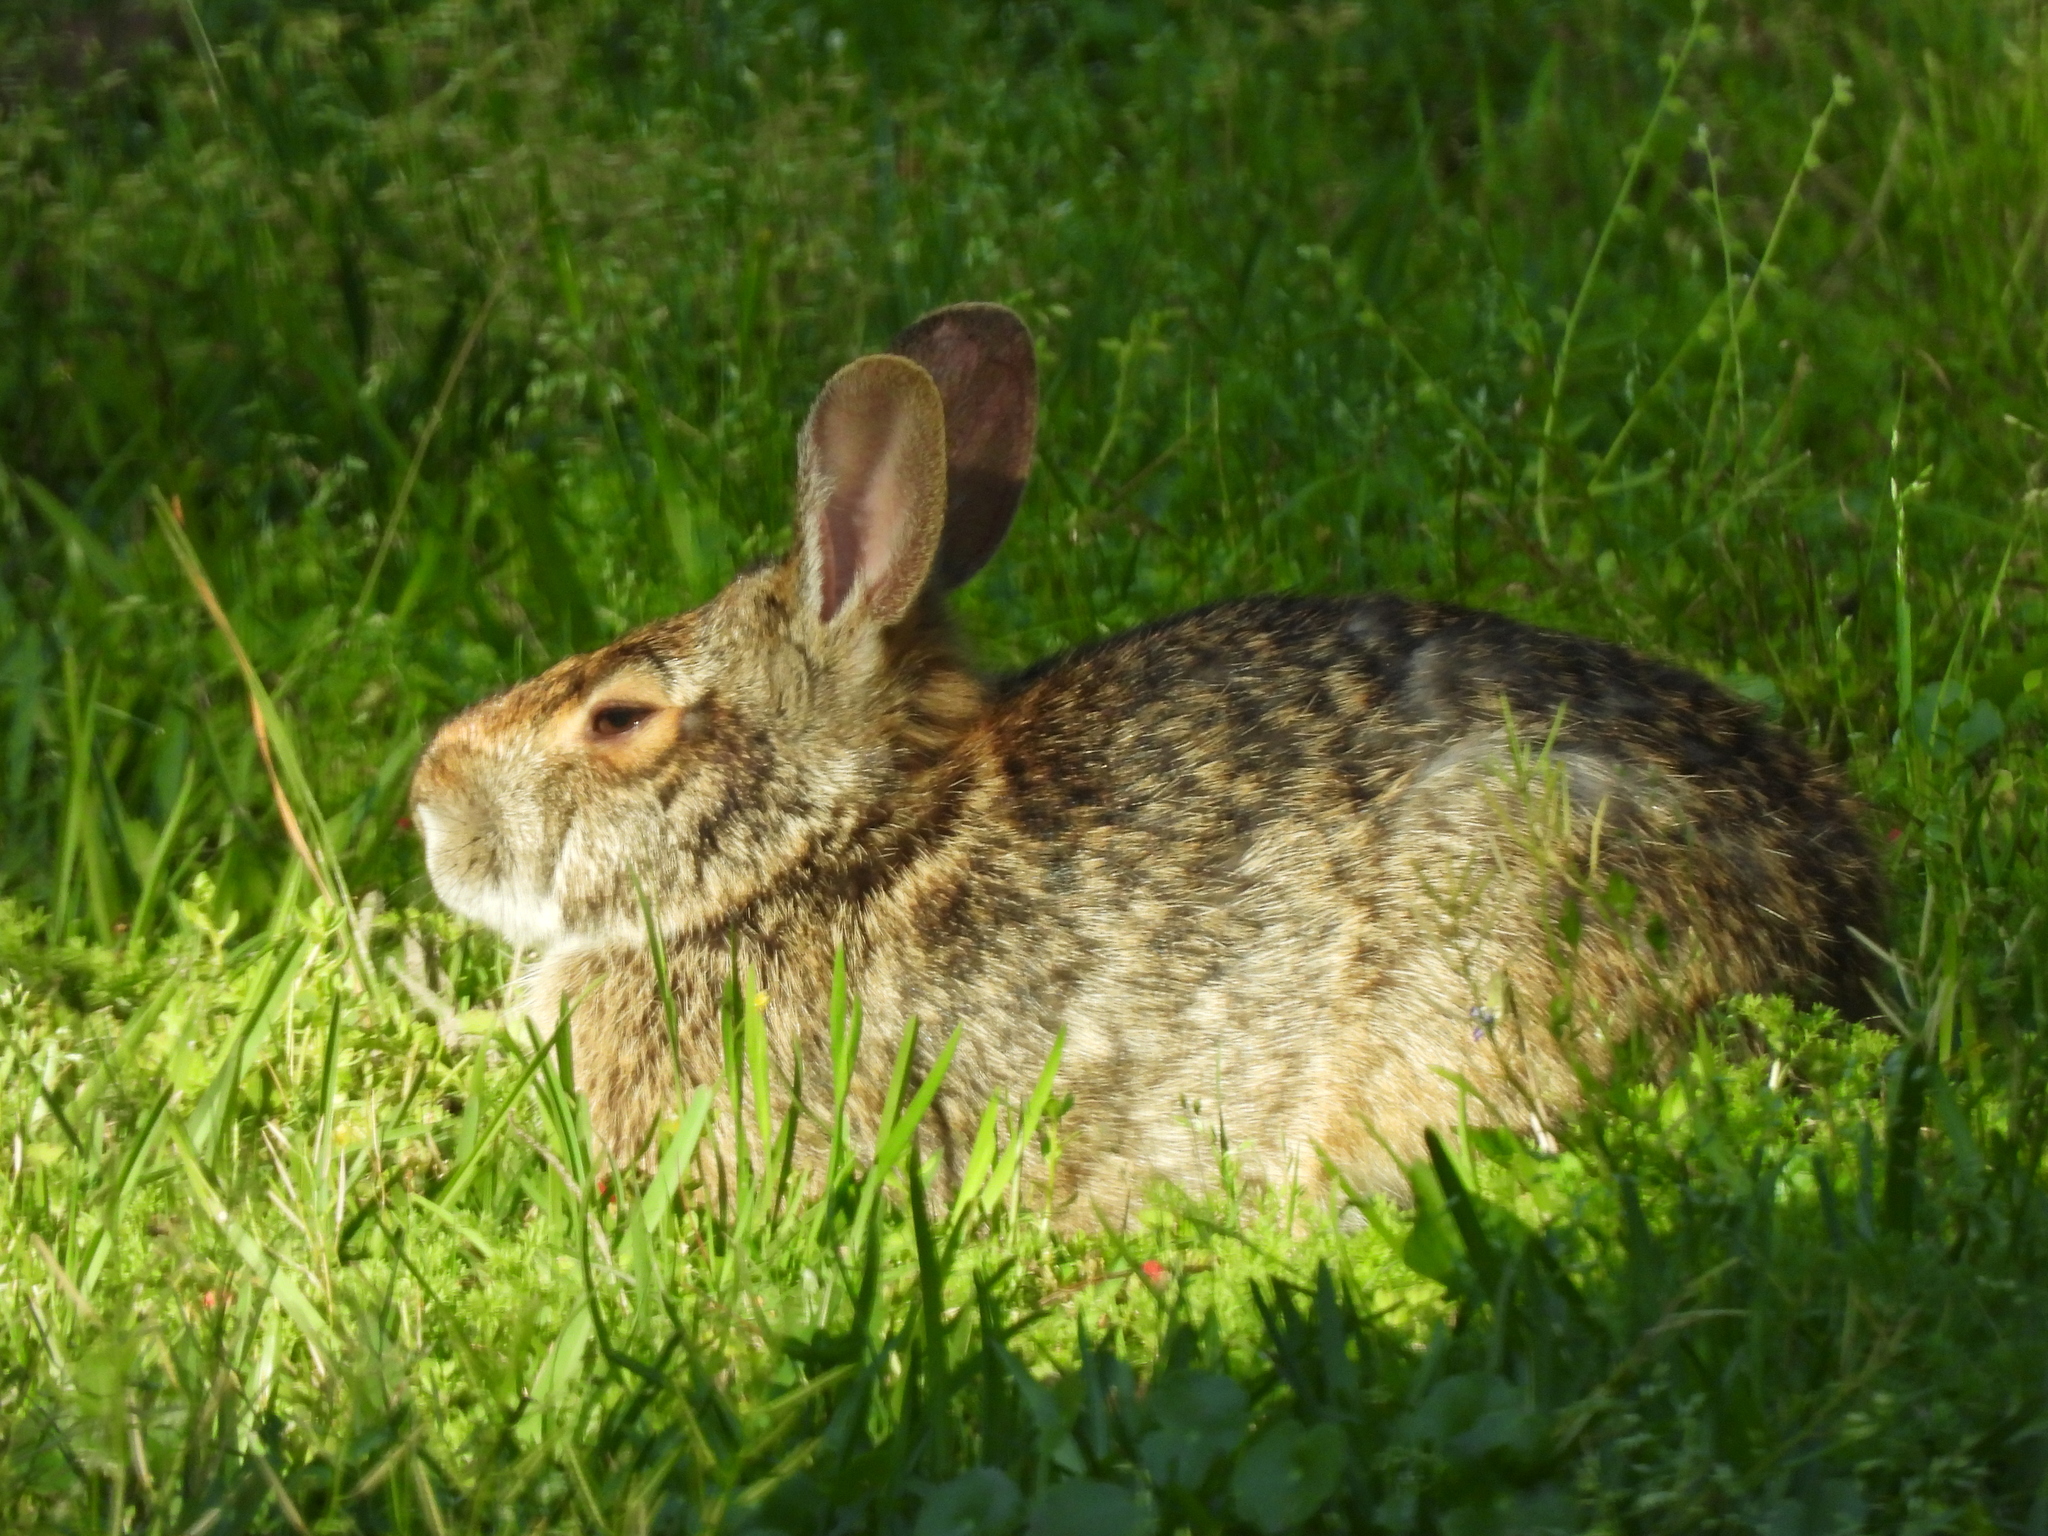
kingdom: Animalia
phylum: Chordata
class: Mammalia
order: Lagomorpha
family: Leporidae
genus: Sylvilagus
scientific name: Sylvilagus aquaticus
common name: Swamp rabbit
